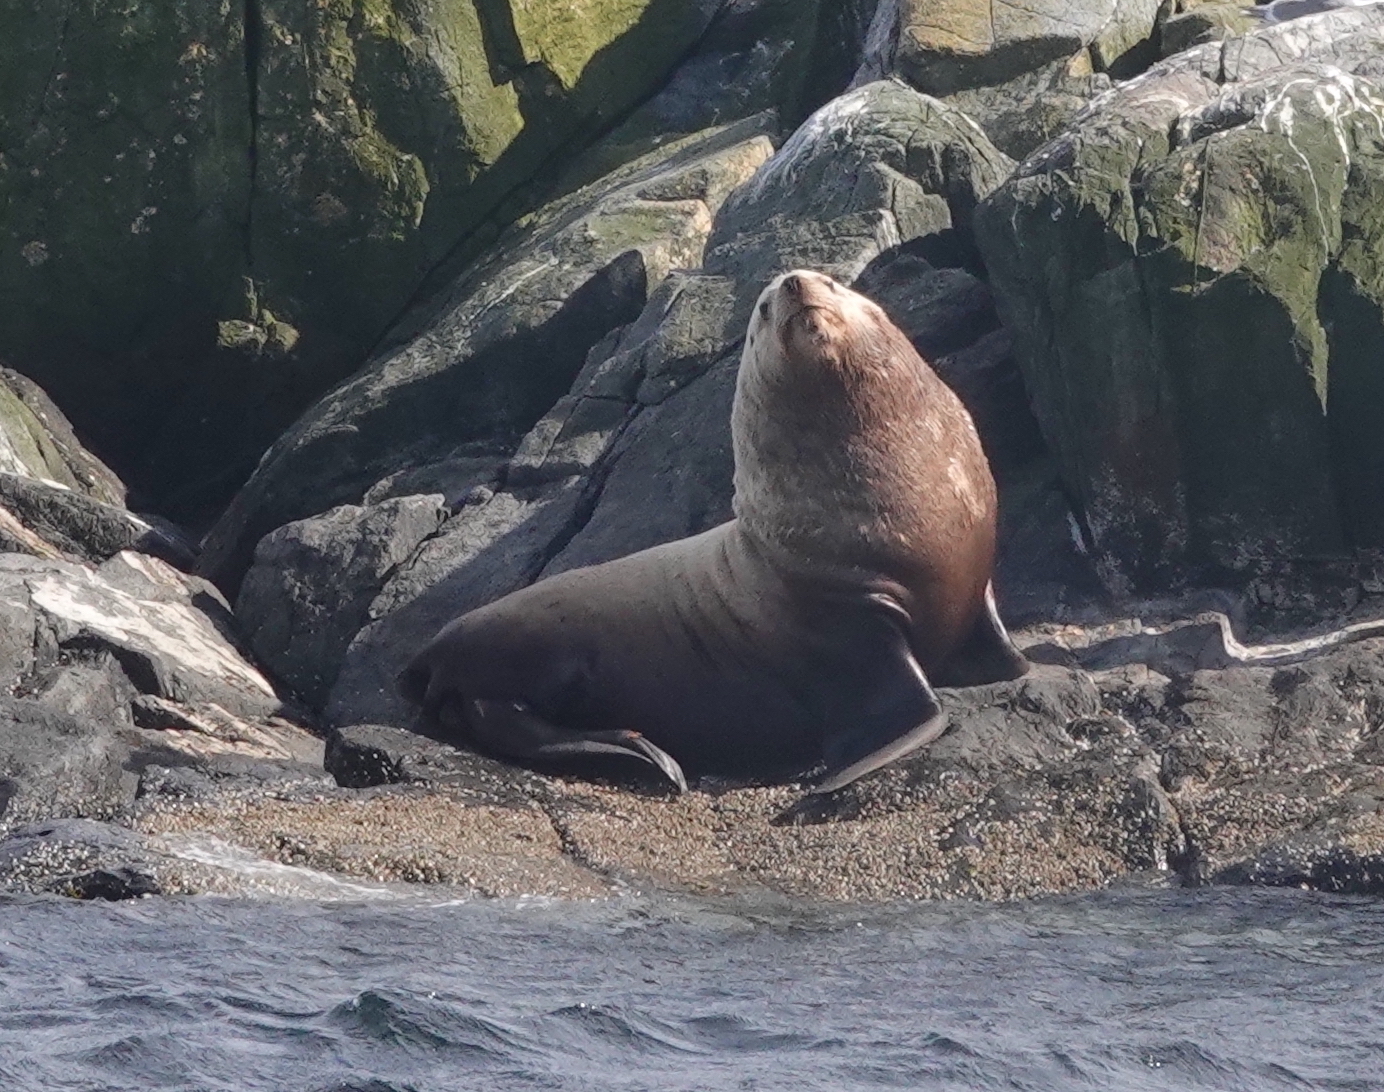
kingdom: Animalia
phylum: Chordata
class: Mammalia
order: Carnivora
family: Otariidae
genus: Eumetopias
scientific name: Eumetopias jubatus
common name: Steller sea lion
